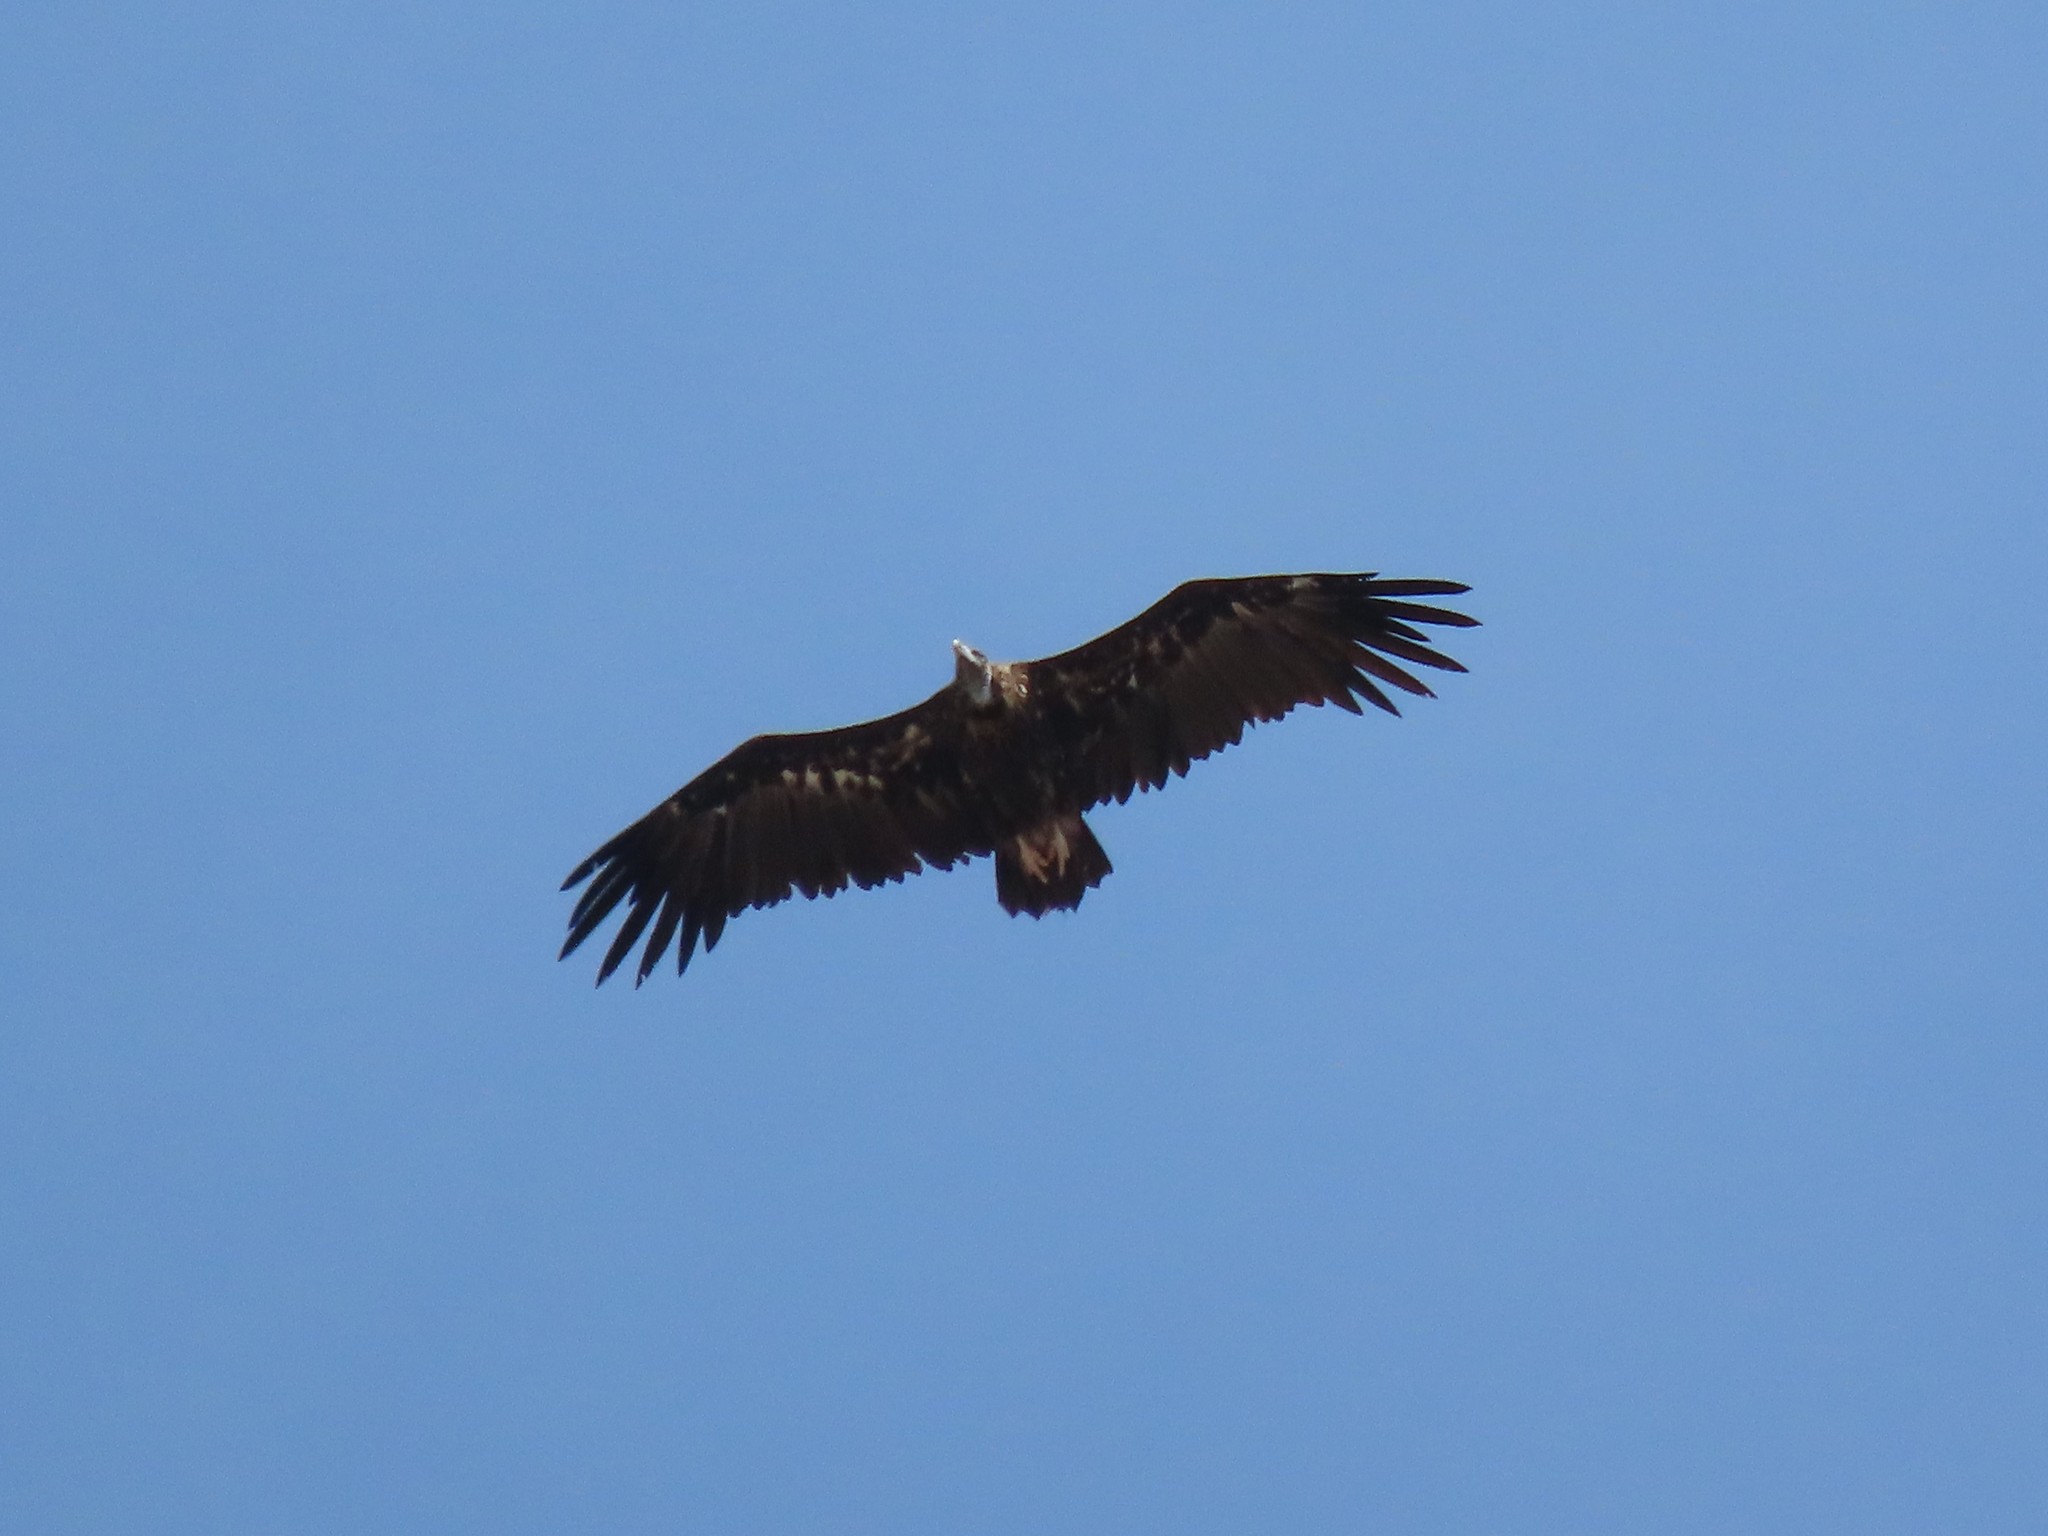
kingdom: Animalia
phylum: Chordata
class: Aves
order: Accipitriformes
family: Accipitridae
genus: Aegypius
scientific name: Aegypius monachus
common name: Cinereous vulture
